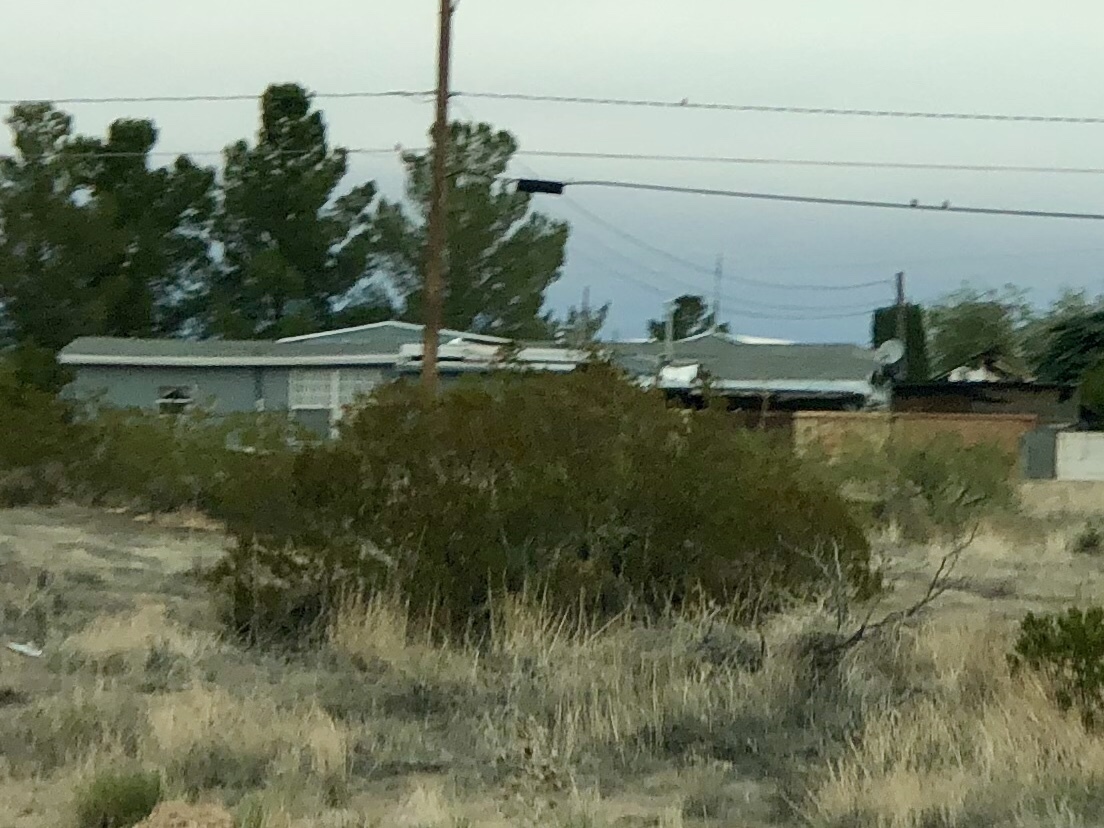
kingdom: Plantae
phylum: Tracheophyta
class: Magnoliopsida
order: Zygophyllales
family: Zygophyllaceae
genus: Larrea
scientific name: Larrea tridentata
